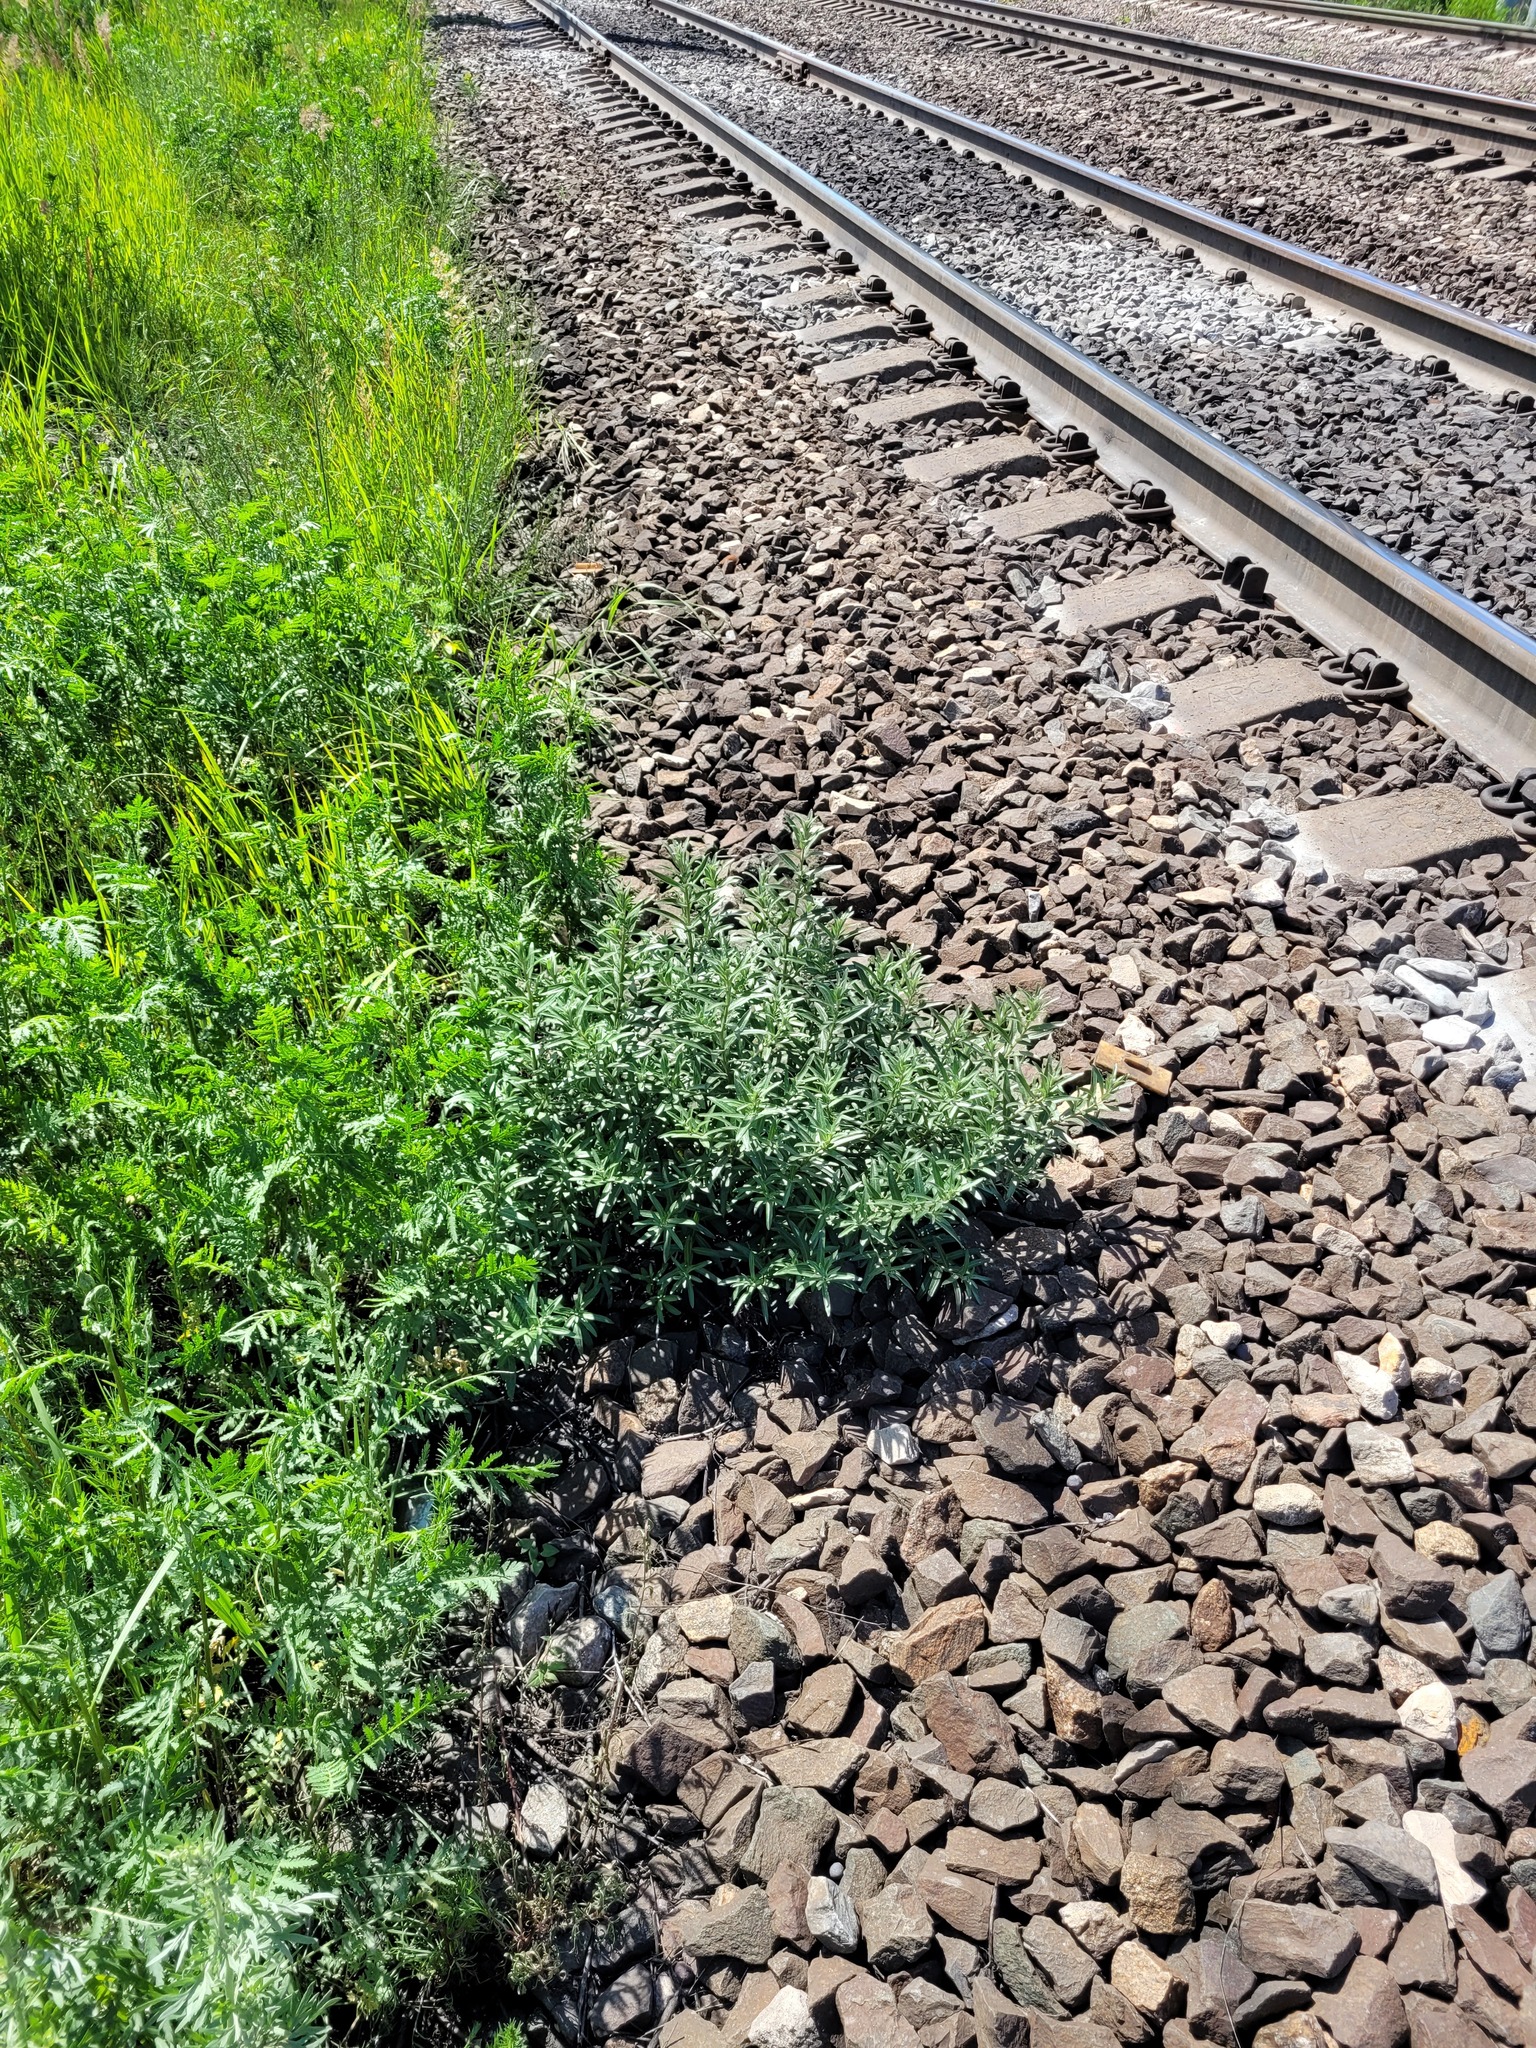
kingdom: Plantae
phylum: Tracheophyta
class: Magnoliopsida
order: Rosales
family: Elaeagnaceae
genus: Hippophae
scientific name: Hippophae rhamnoides
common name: Sea-buckthorn
